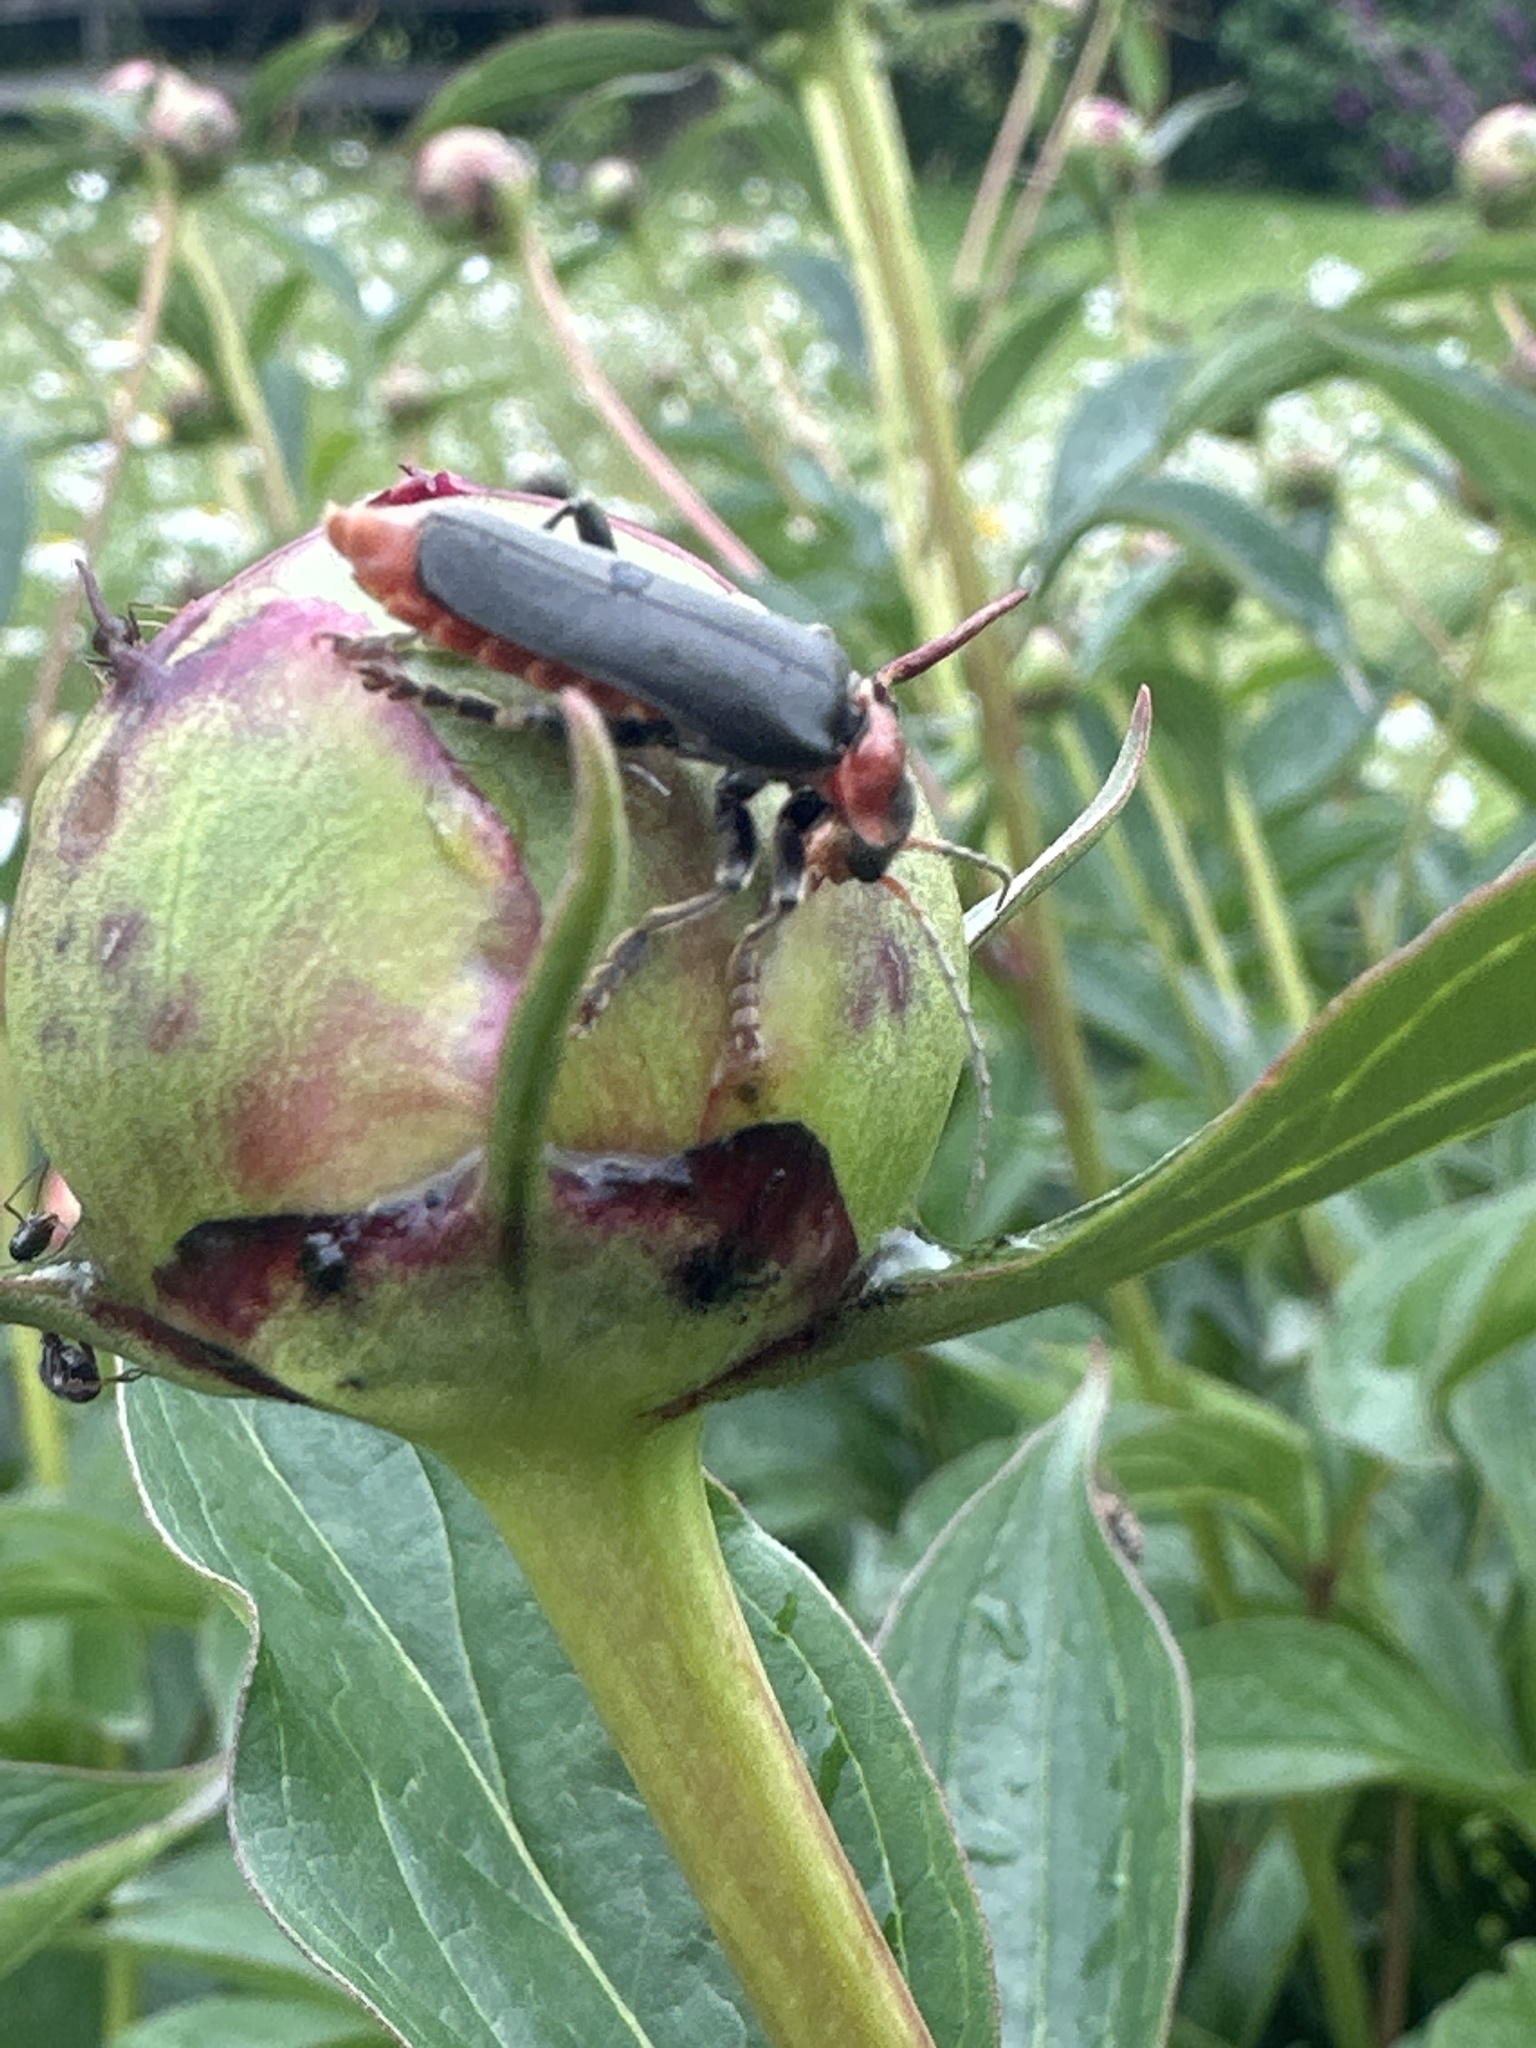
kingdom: Animalia
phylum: Arthropoda
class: Insecta
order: Coleoptera
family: Cantharidae
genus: Cantharis
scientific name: Cantharis fusca
